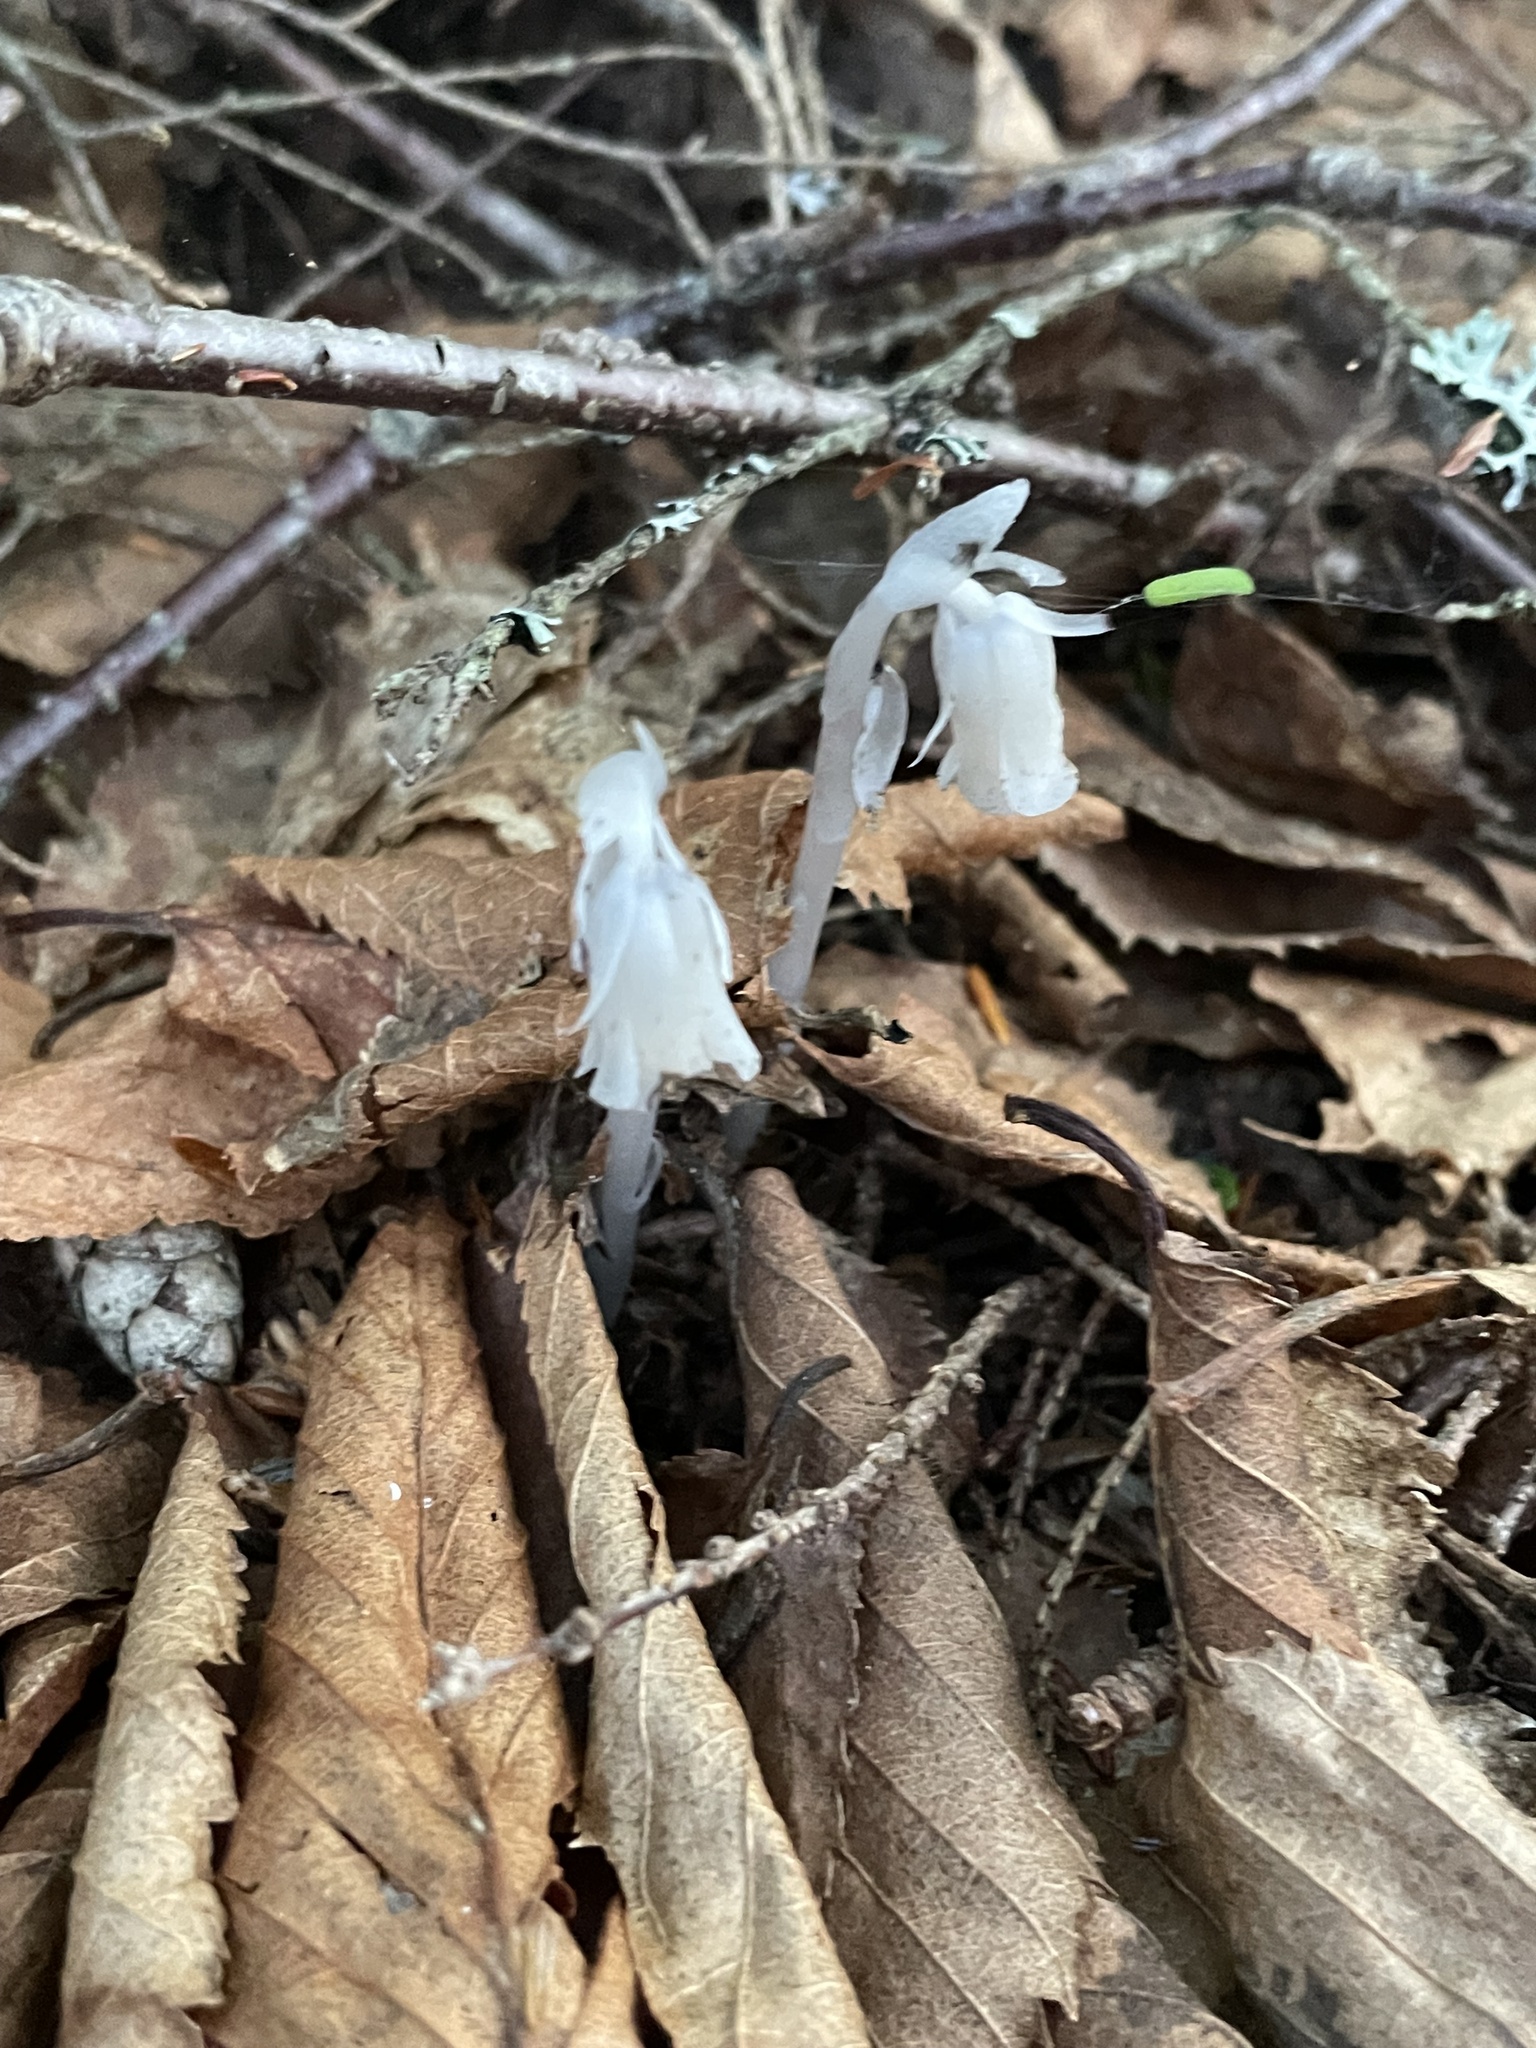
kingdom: Plantae
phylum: Tracheophyta
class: Magnoliopsida
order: Ericales
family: Ericaceae
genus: Monotropa
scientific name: Monotropa uniflora
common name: Convulsion root
